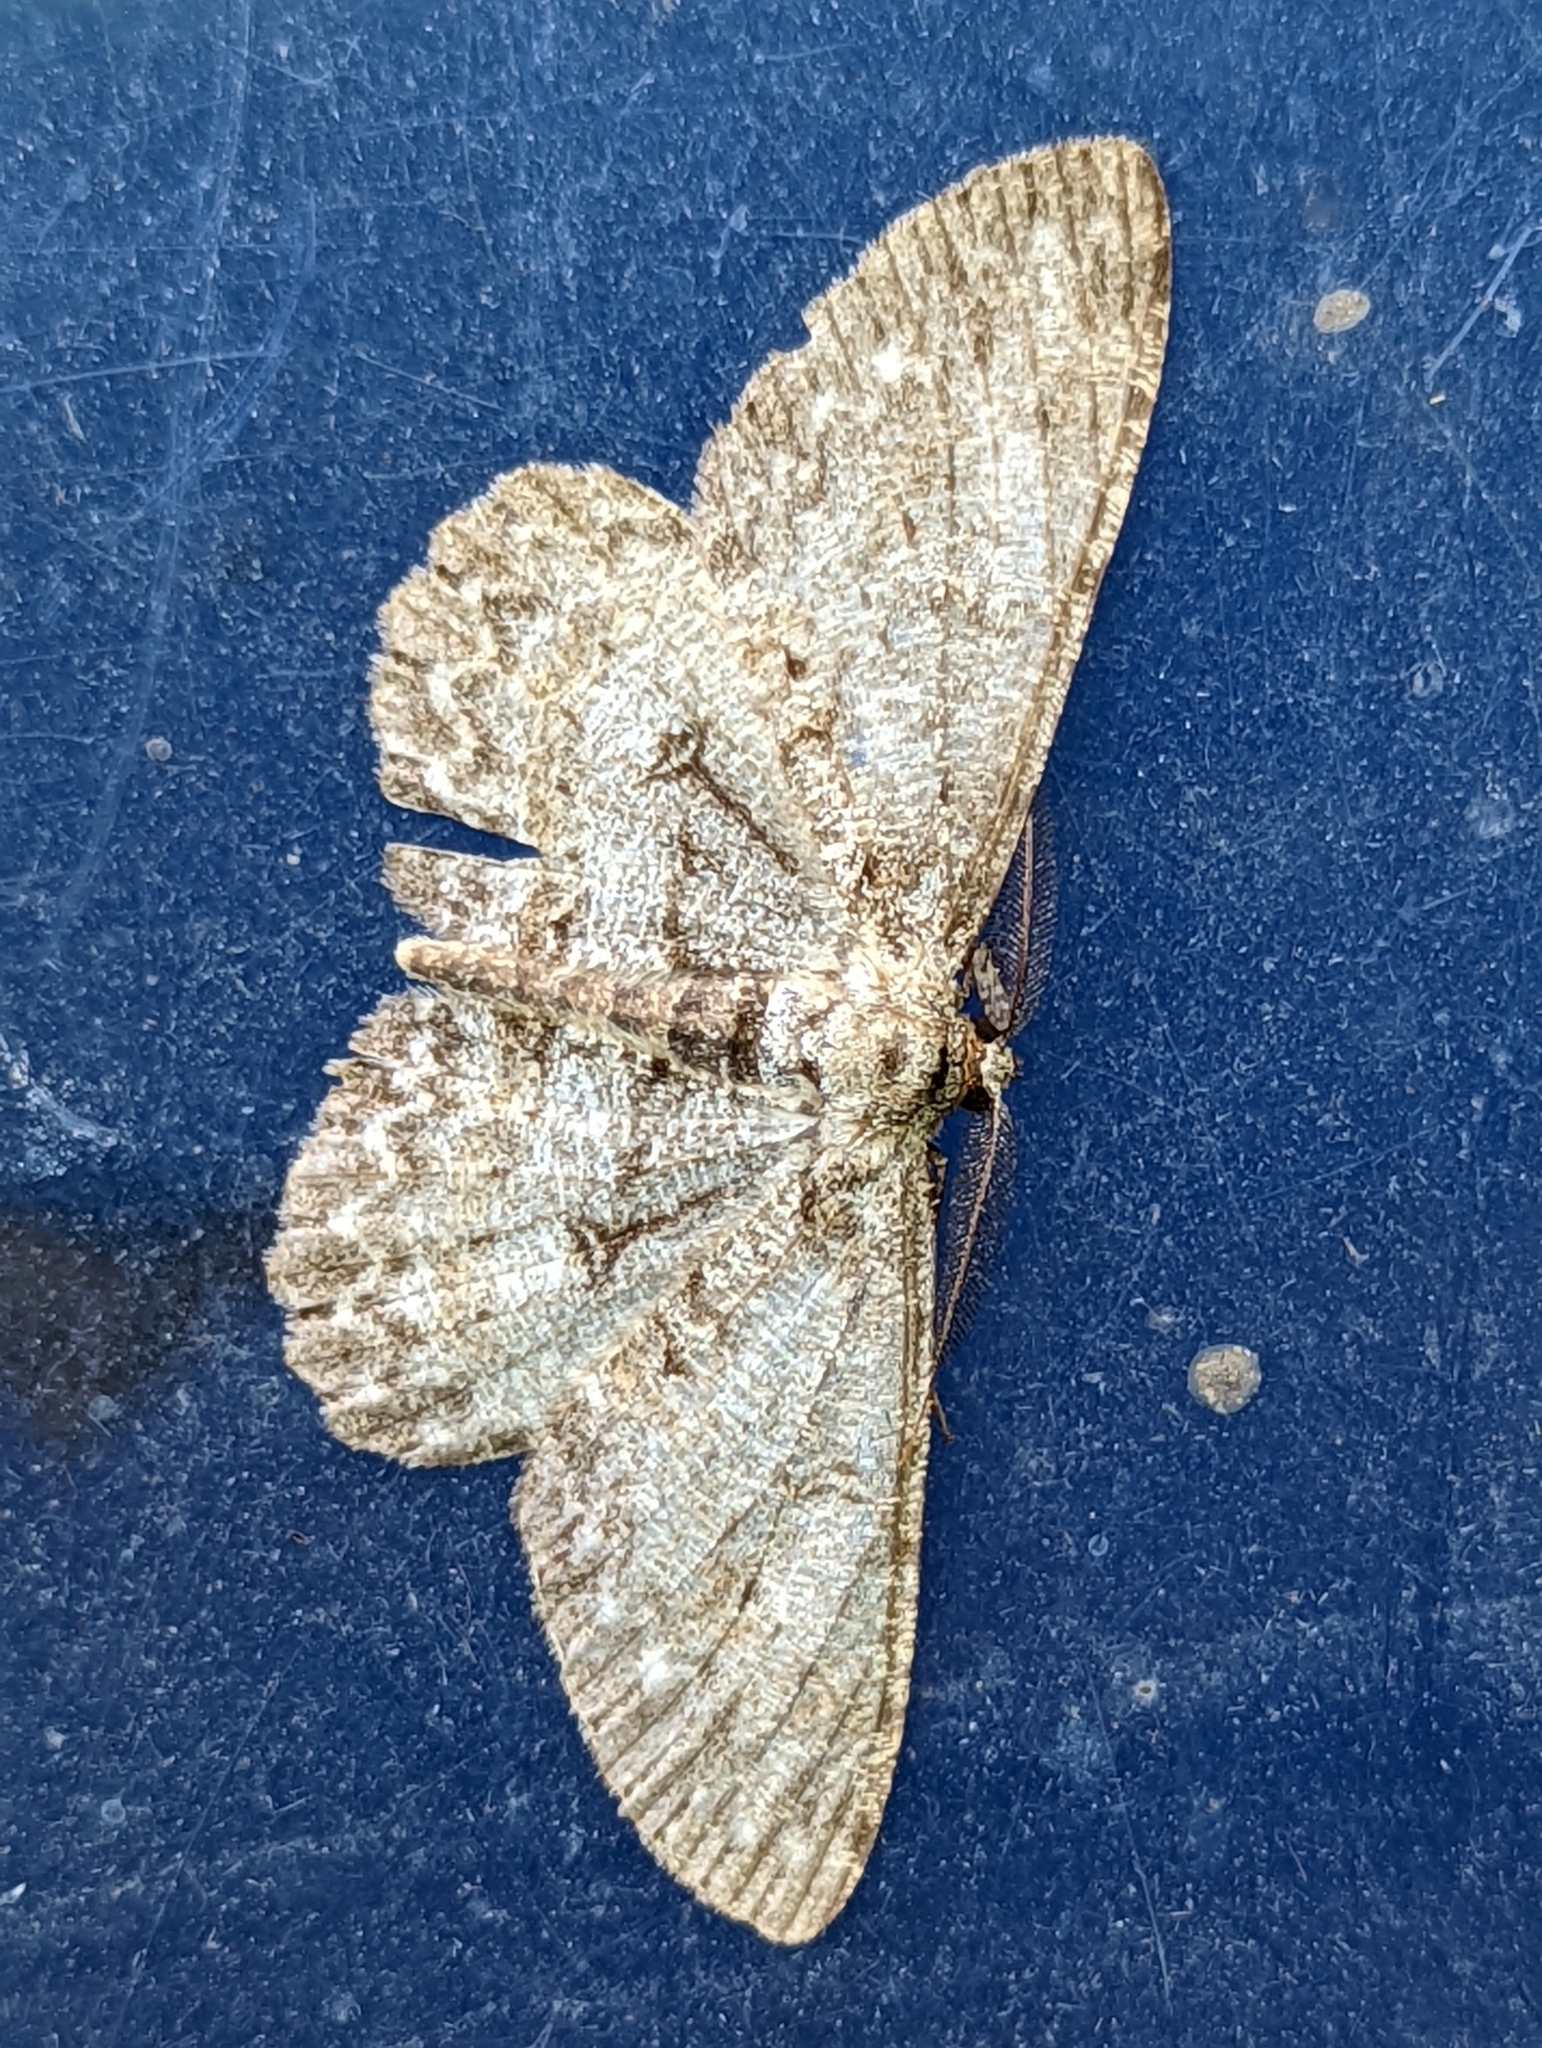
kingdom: Animalia
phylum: Arthropoda
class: Insecta
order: Lepidoptera
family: Geometridae
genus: Hypomecis
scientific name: Hypomecis punctinalis
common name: Pale oak beauty
